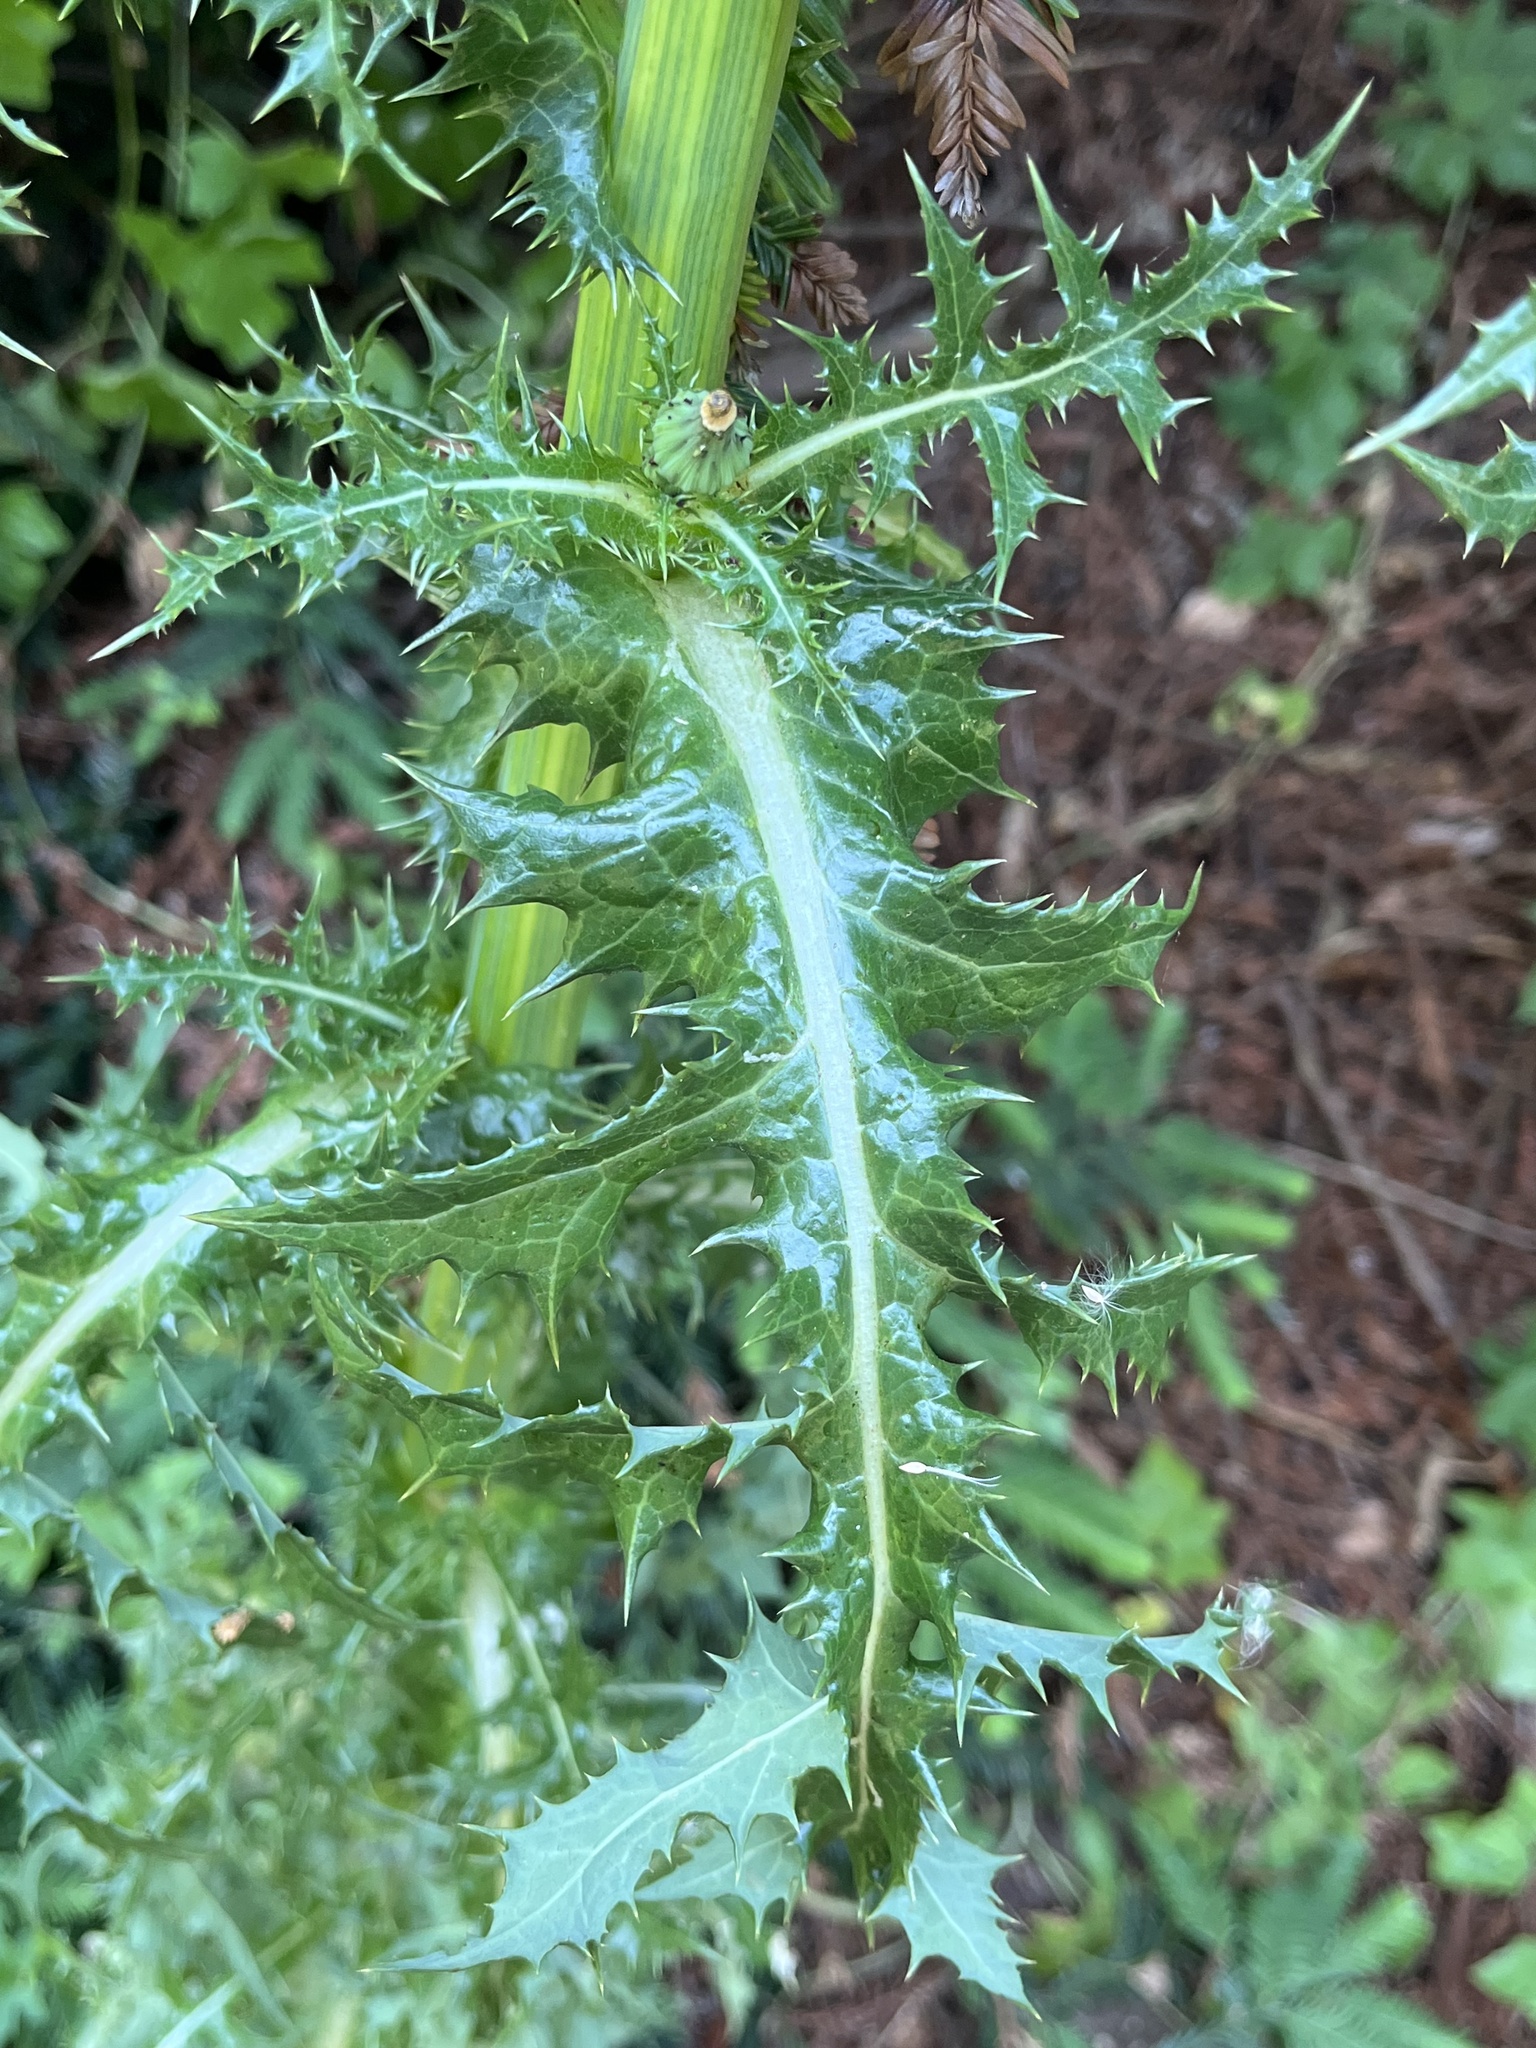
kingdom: Plantae
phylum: Tracheophyta
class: Magnoliopsida
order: Asterales
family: Asteraceae
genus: Sonchus
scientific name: Sonchus asper
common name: Prickly sow-thistle
